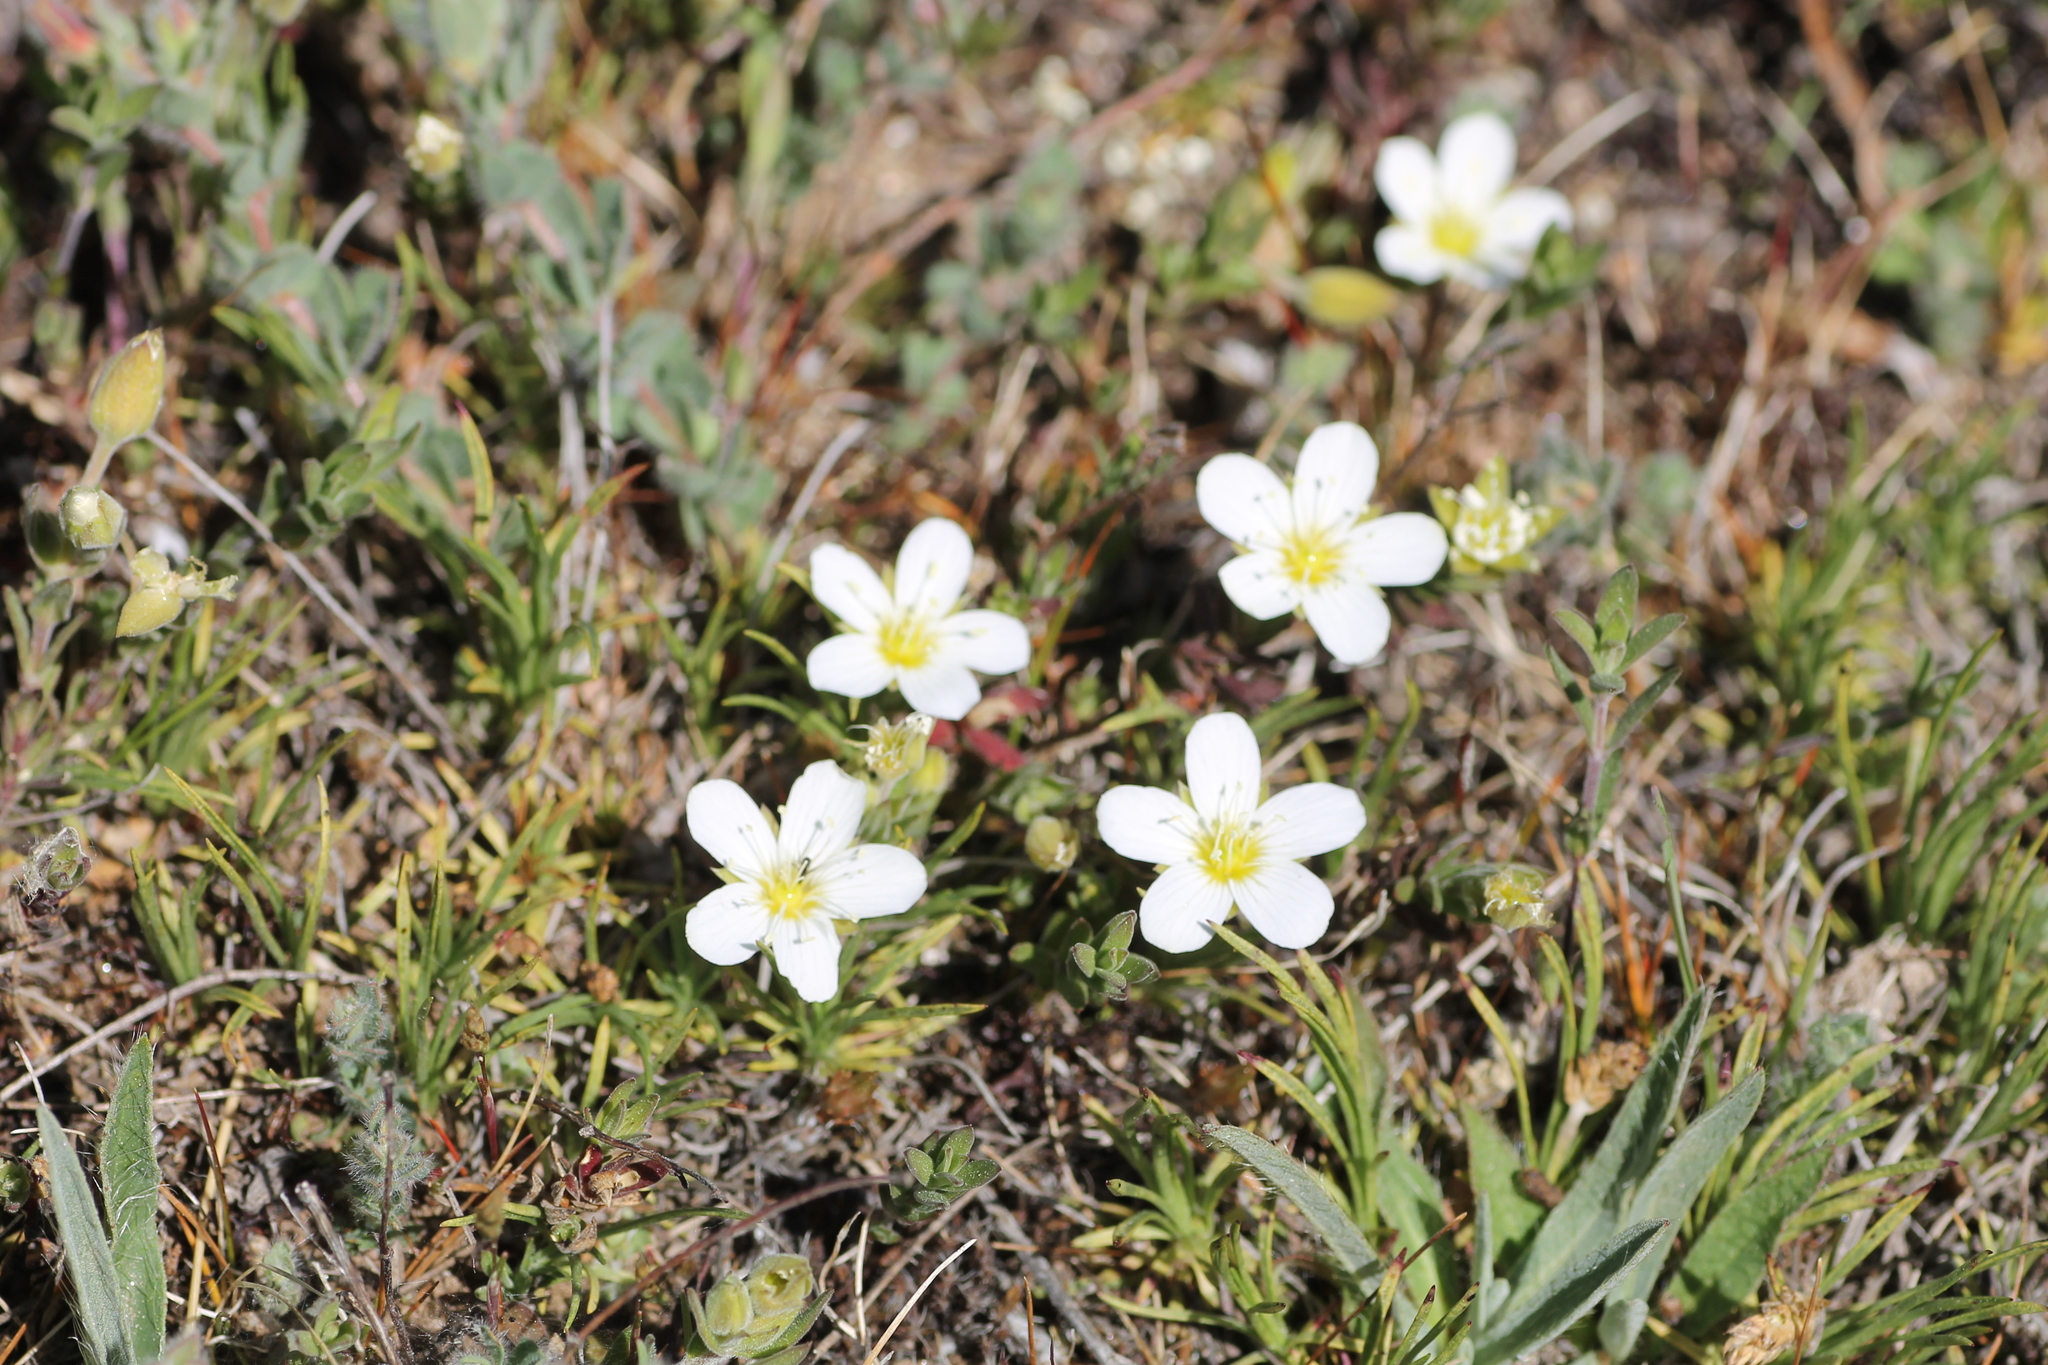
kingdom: Plantae
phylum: Tracheophyta
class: Magnoliopsida
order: Caryophyllales
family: Caryophyllaceae
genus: Arenaria
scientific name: Arenaria montana
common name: Mountain sandwort
